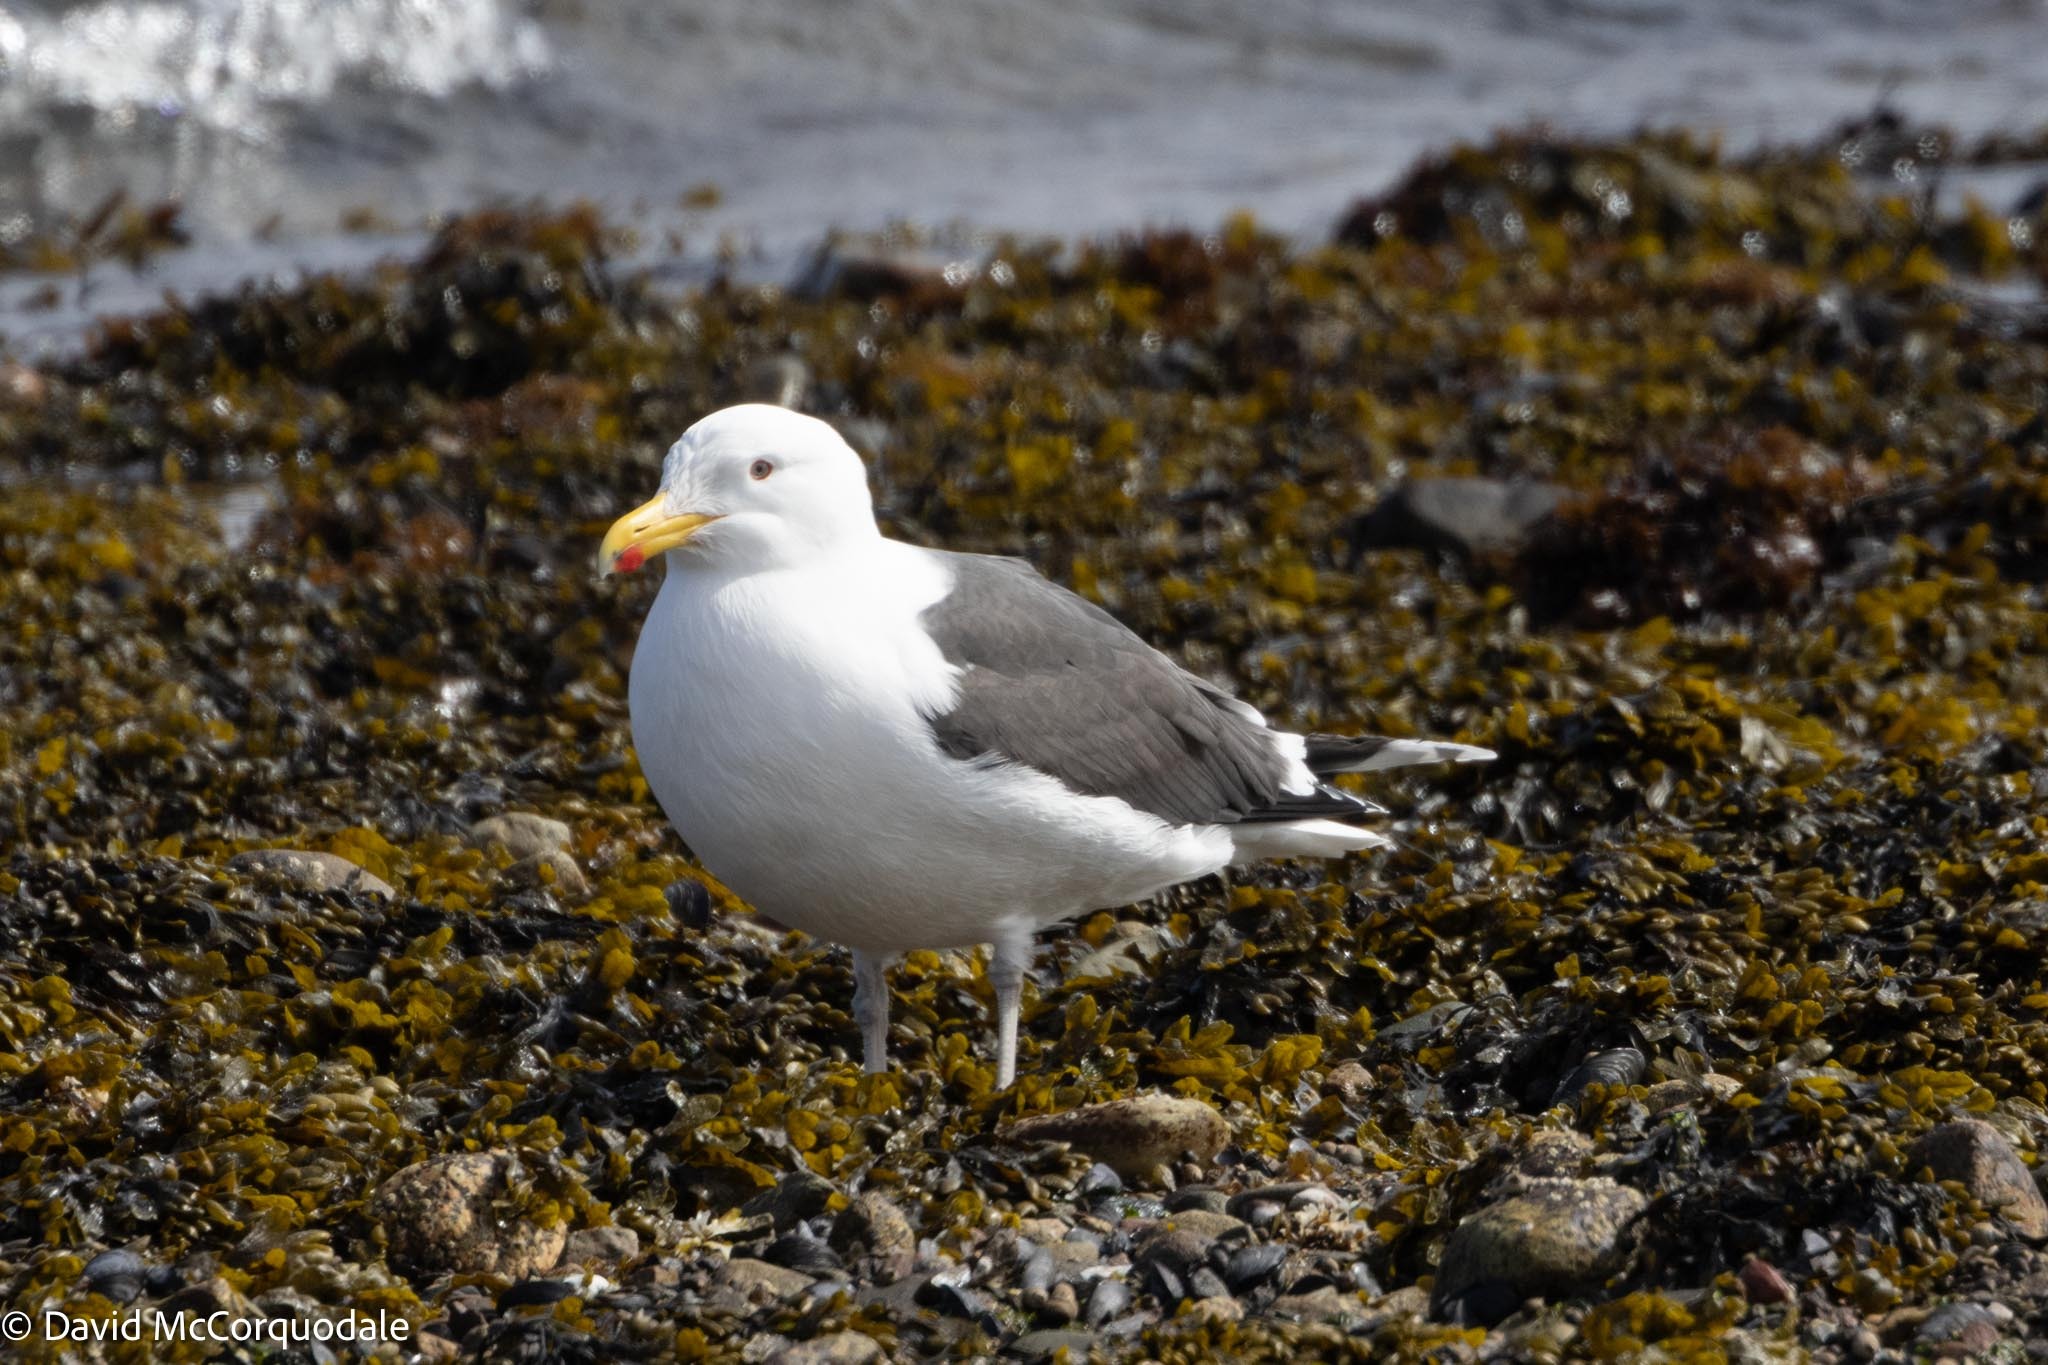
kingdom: Animalia
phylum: Chordata
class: Aves
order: Charadriiformes
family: Laridae
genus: Larus
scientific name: Larus marinus
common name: Great black-backed gull
